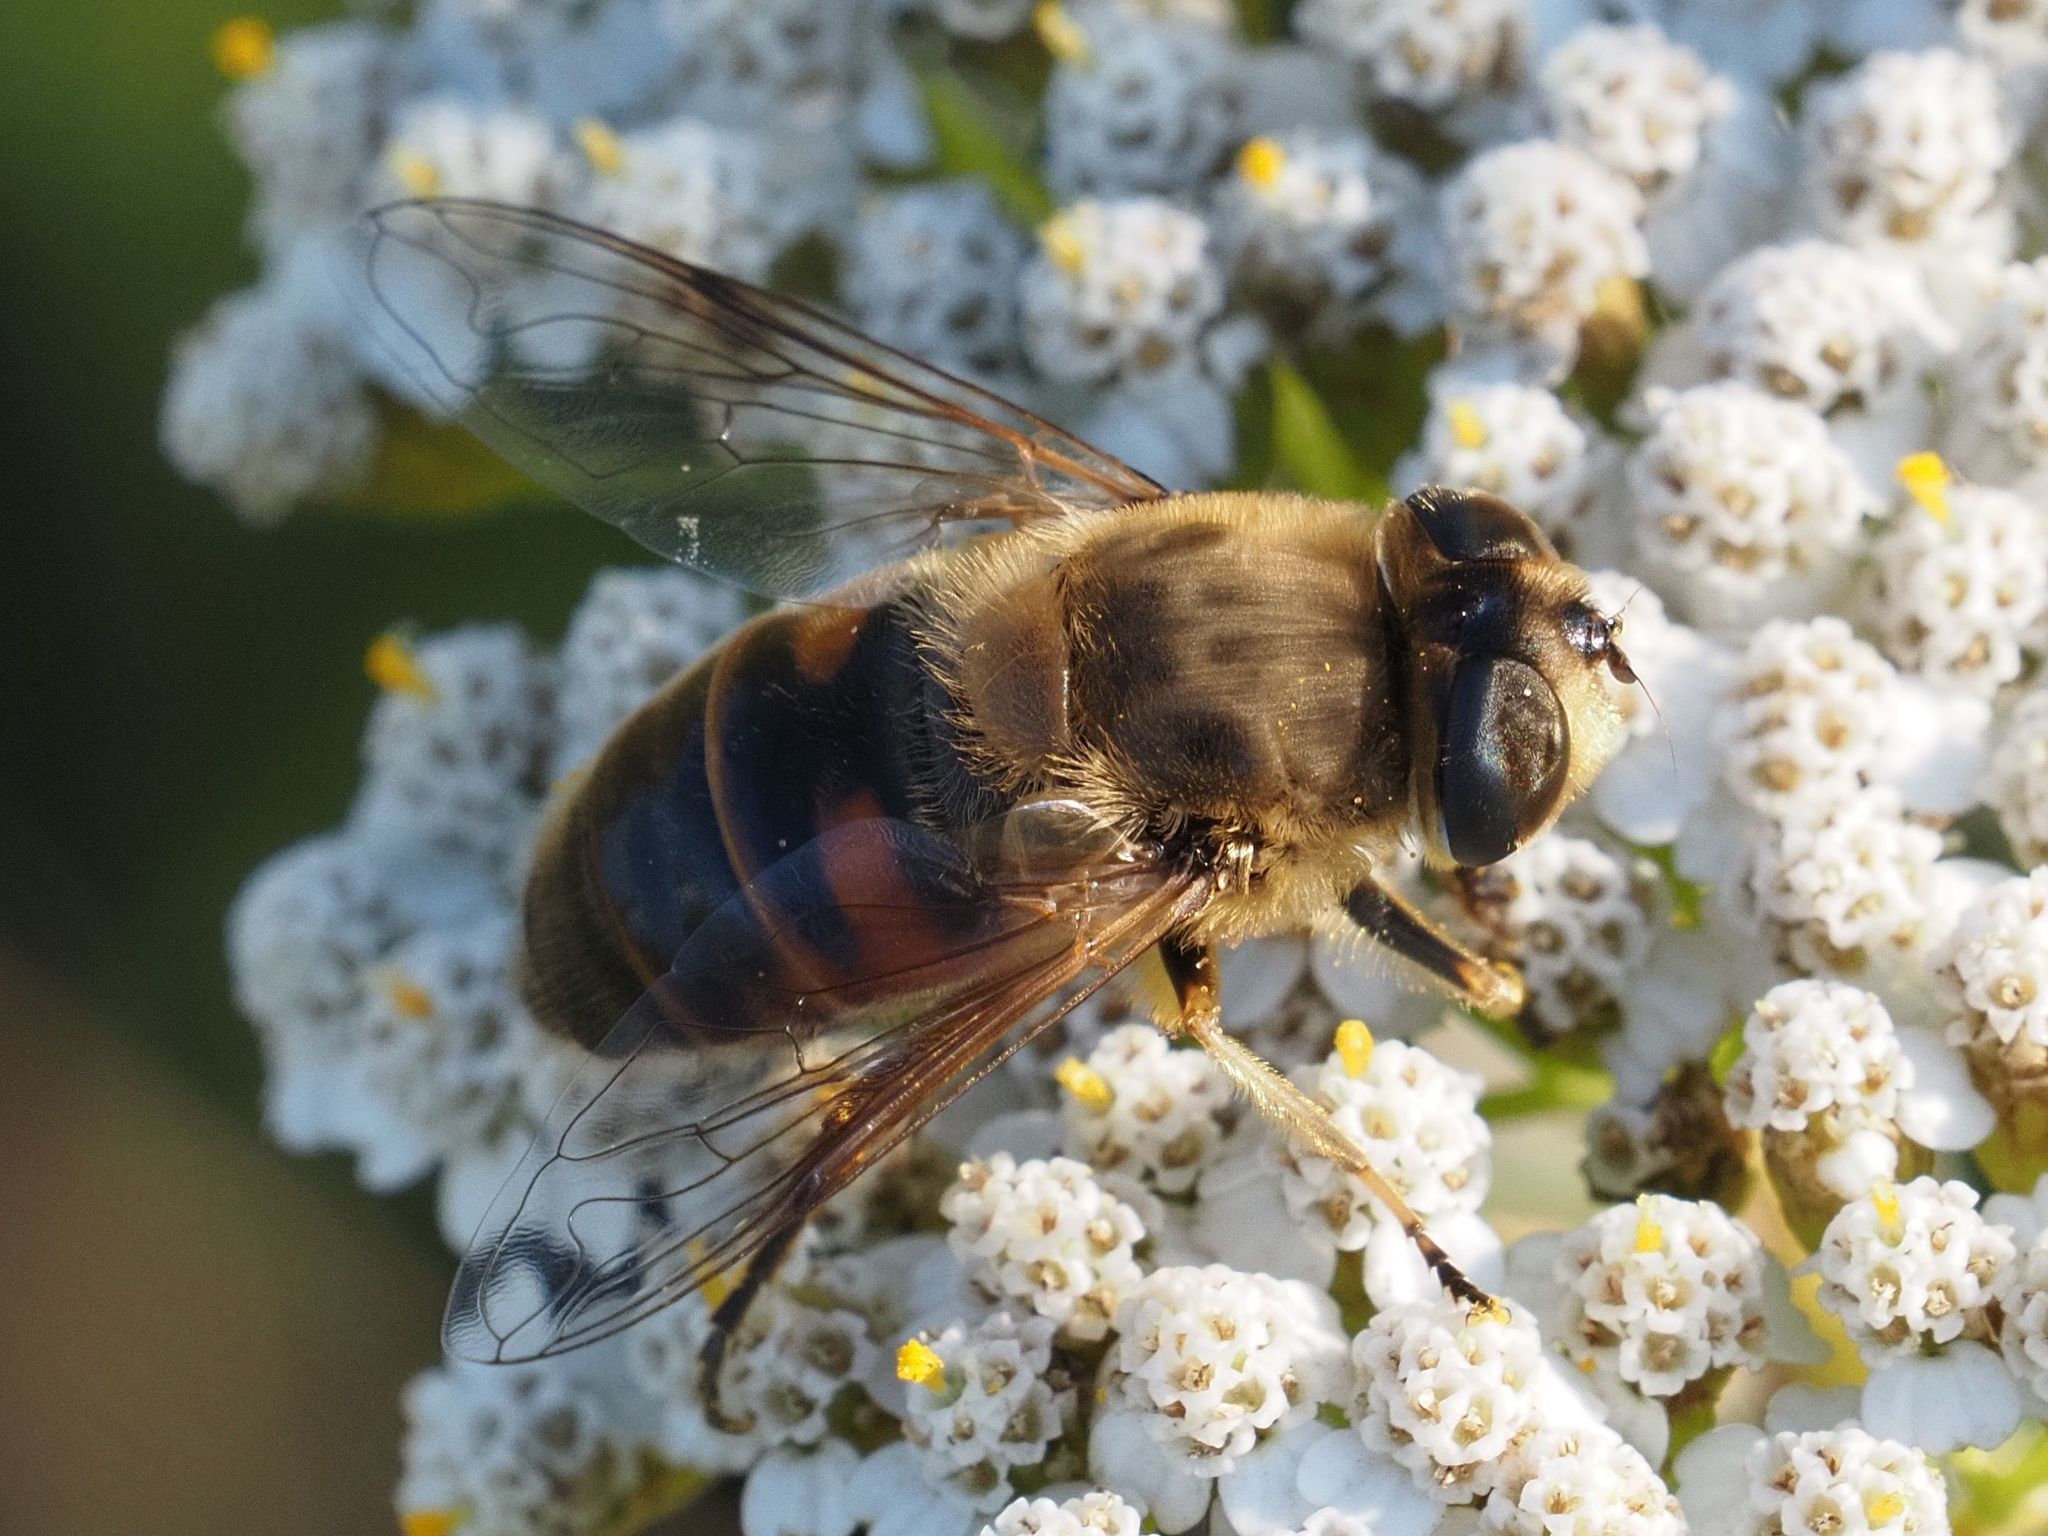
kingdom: Animalia
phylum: Arthropoda
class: Insecta
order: Diptera
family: Syrphidae
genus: Eristalis
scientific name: Eristalis tenax
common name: Drone fly
